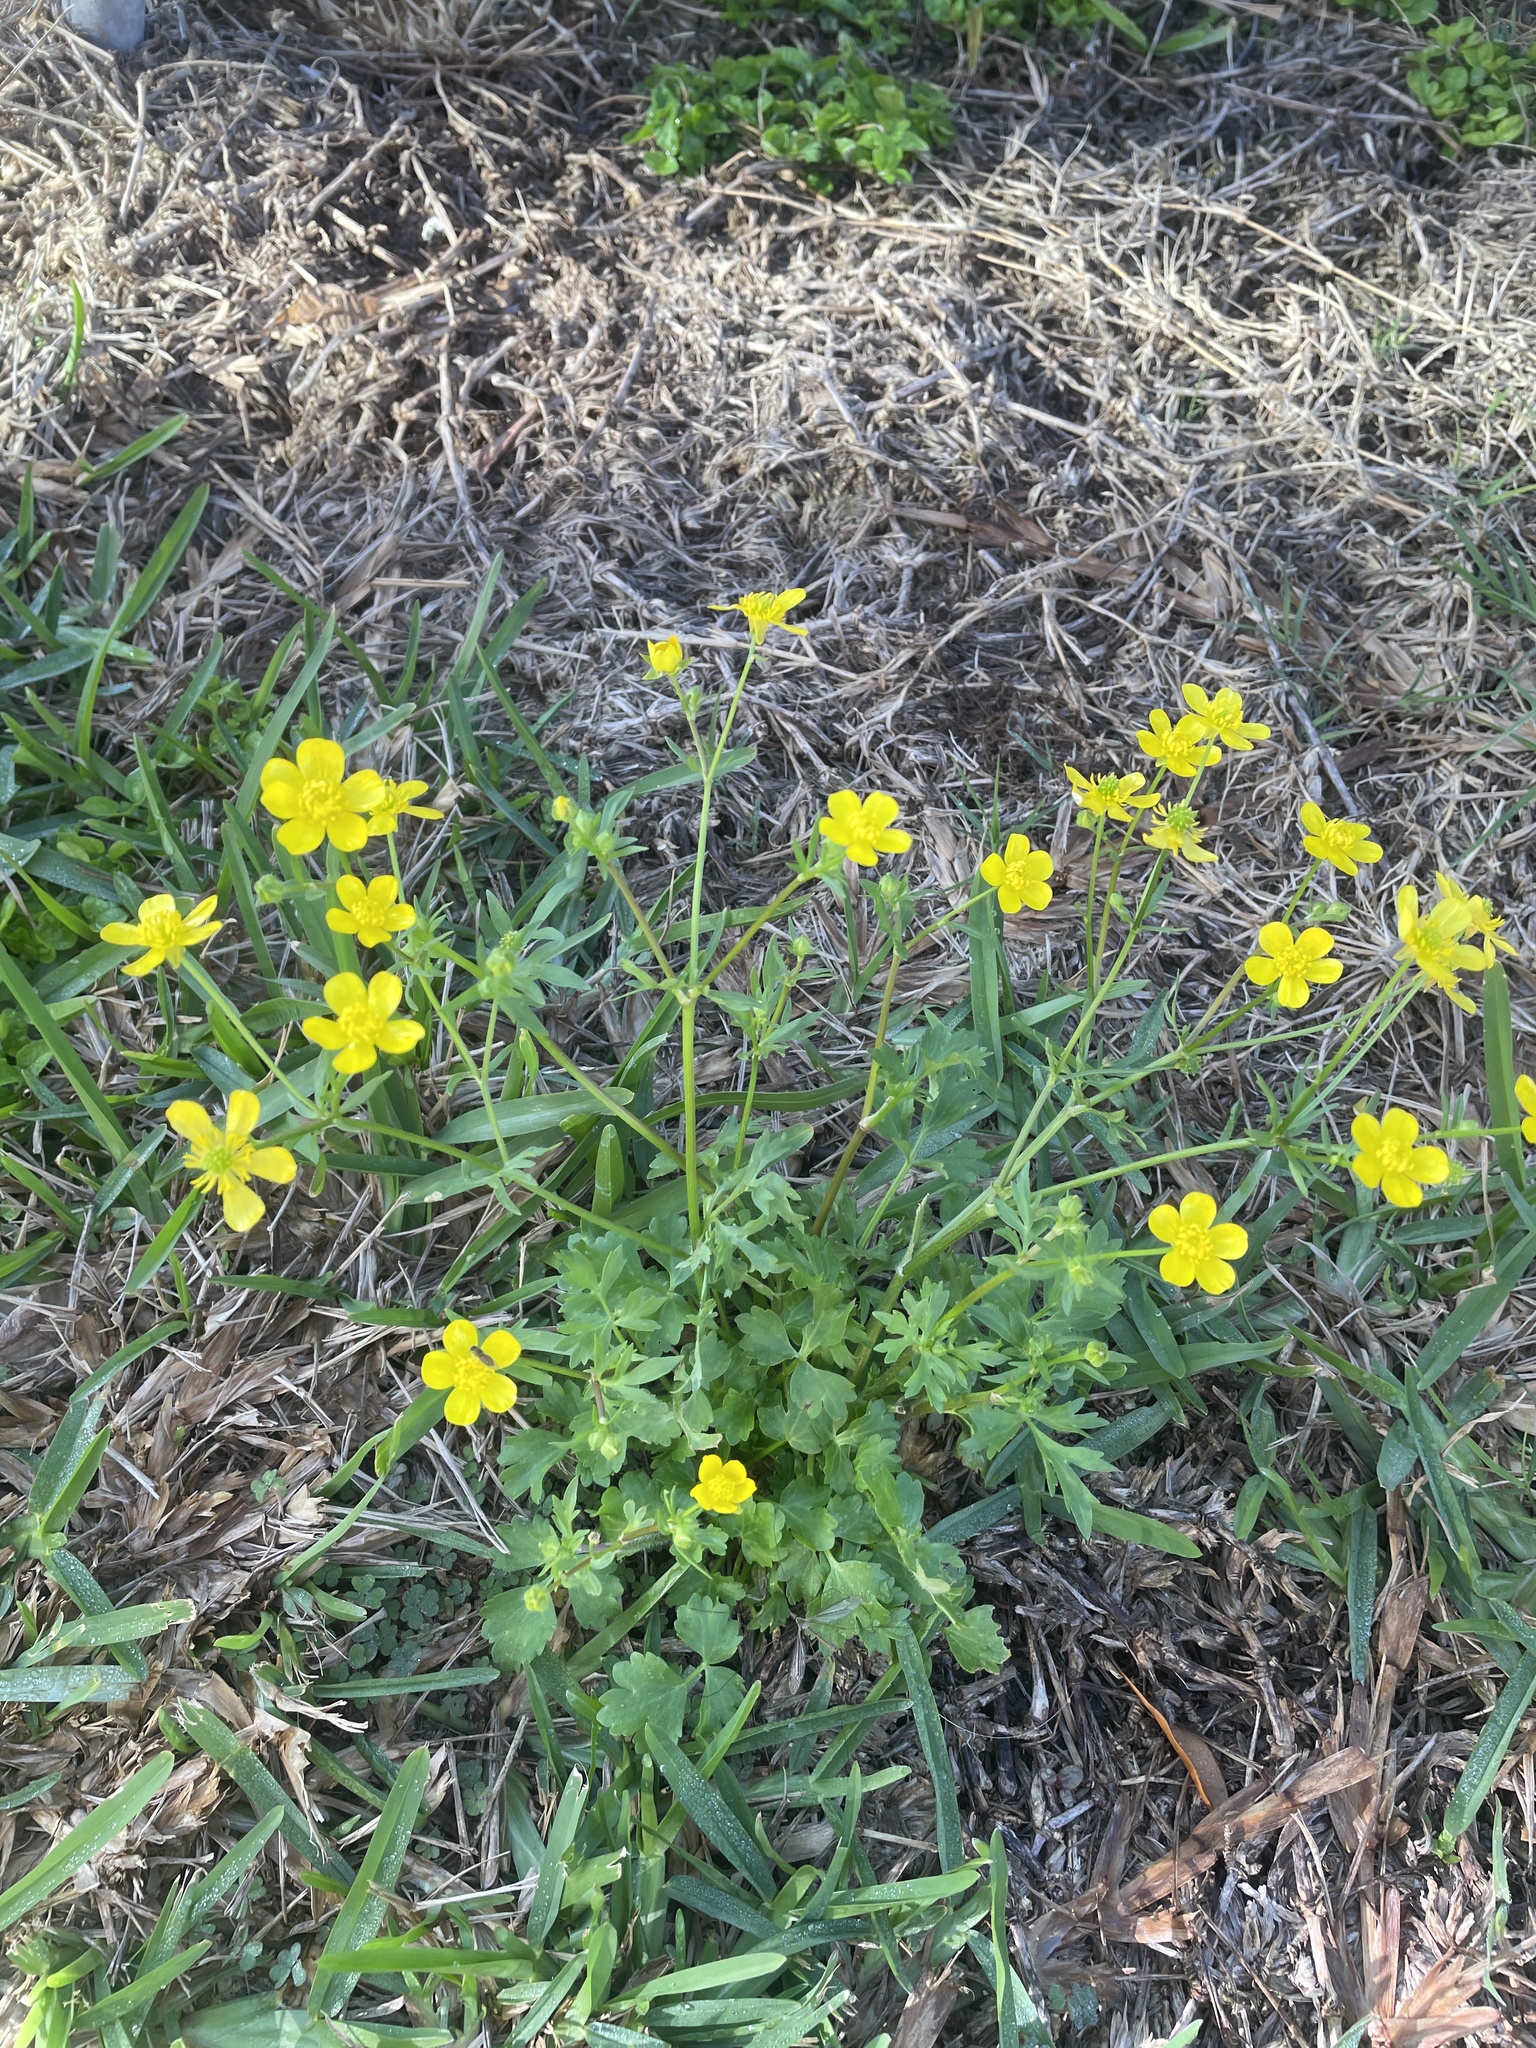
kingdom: Plantae
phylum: Tracheophyta
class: Magnoliopsida
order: Ranunculales
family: Ranunculaceae
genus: Ranunculus
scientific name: Ranunculus muricatus
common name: Rough-fruited buttercup
